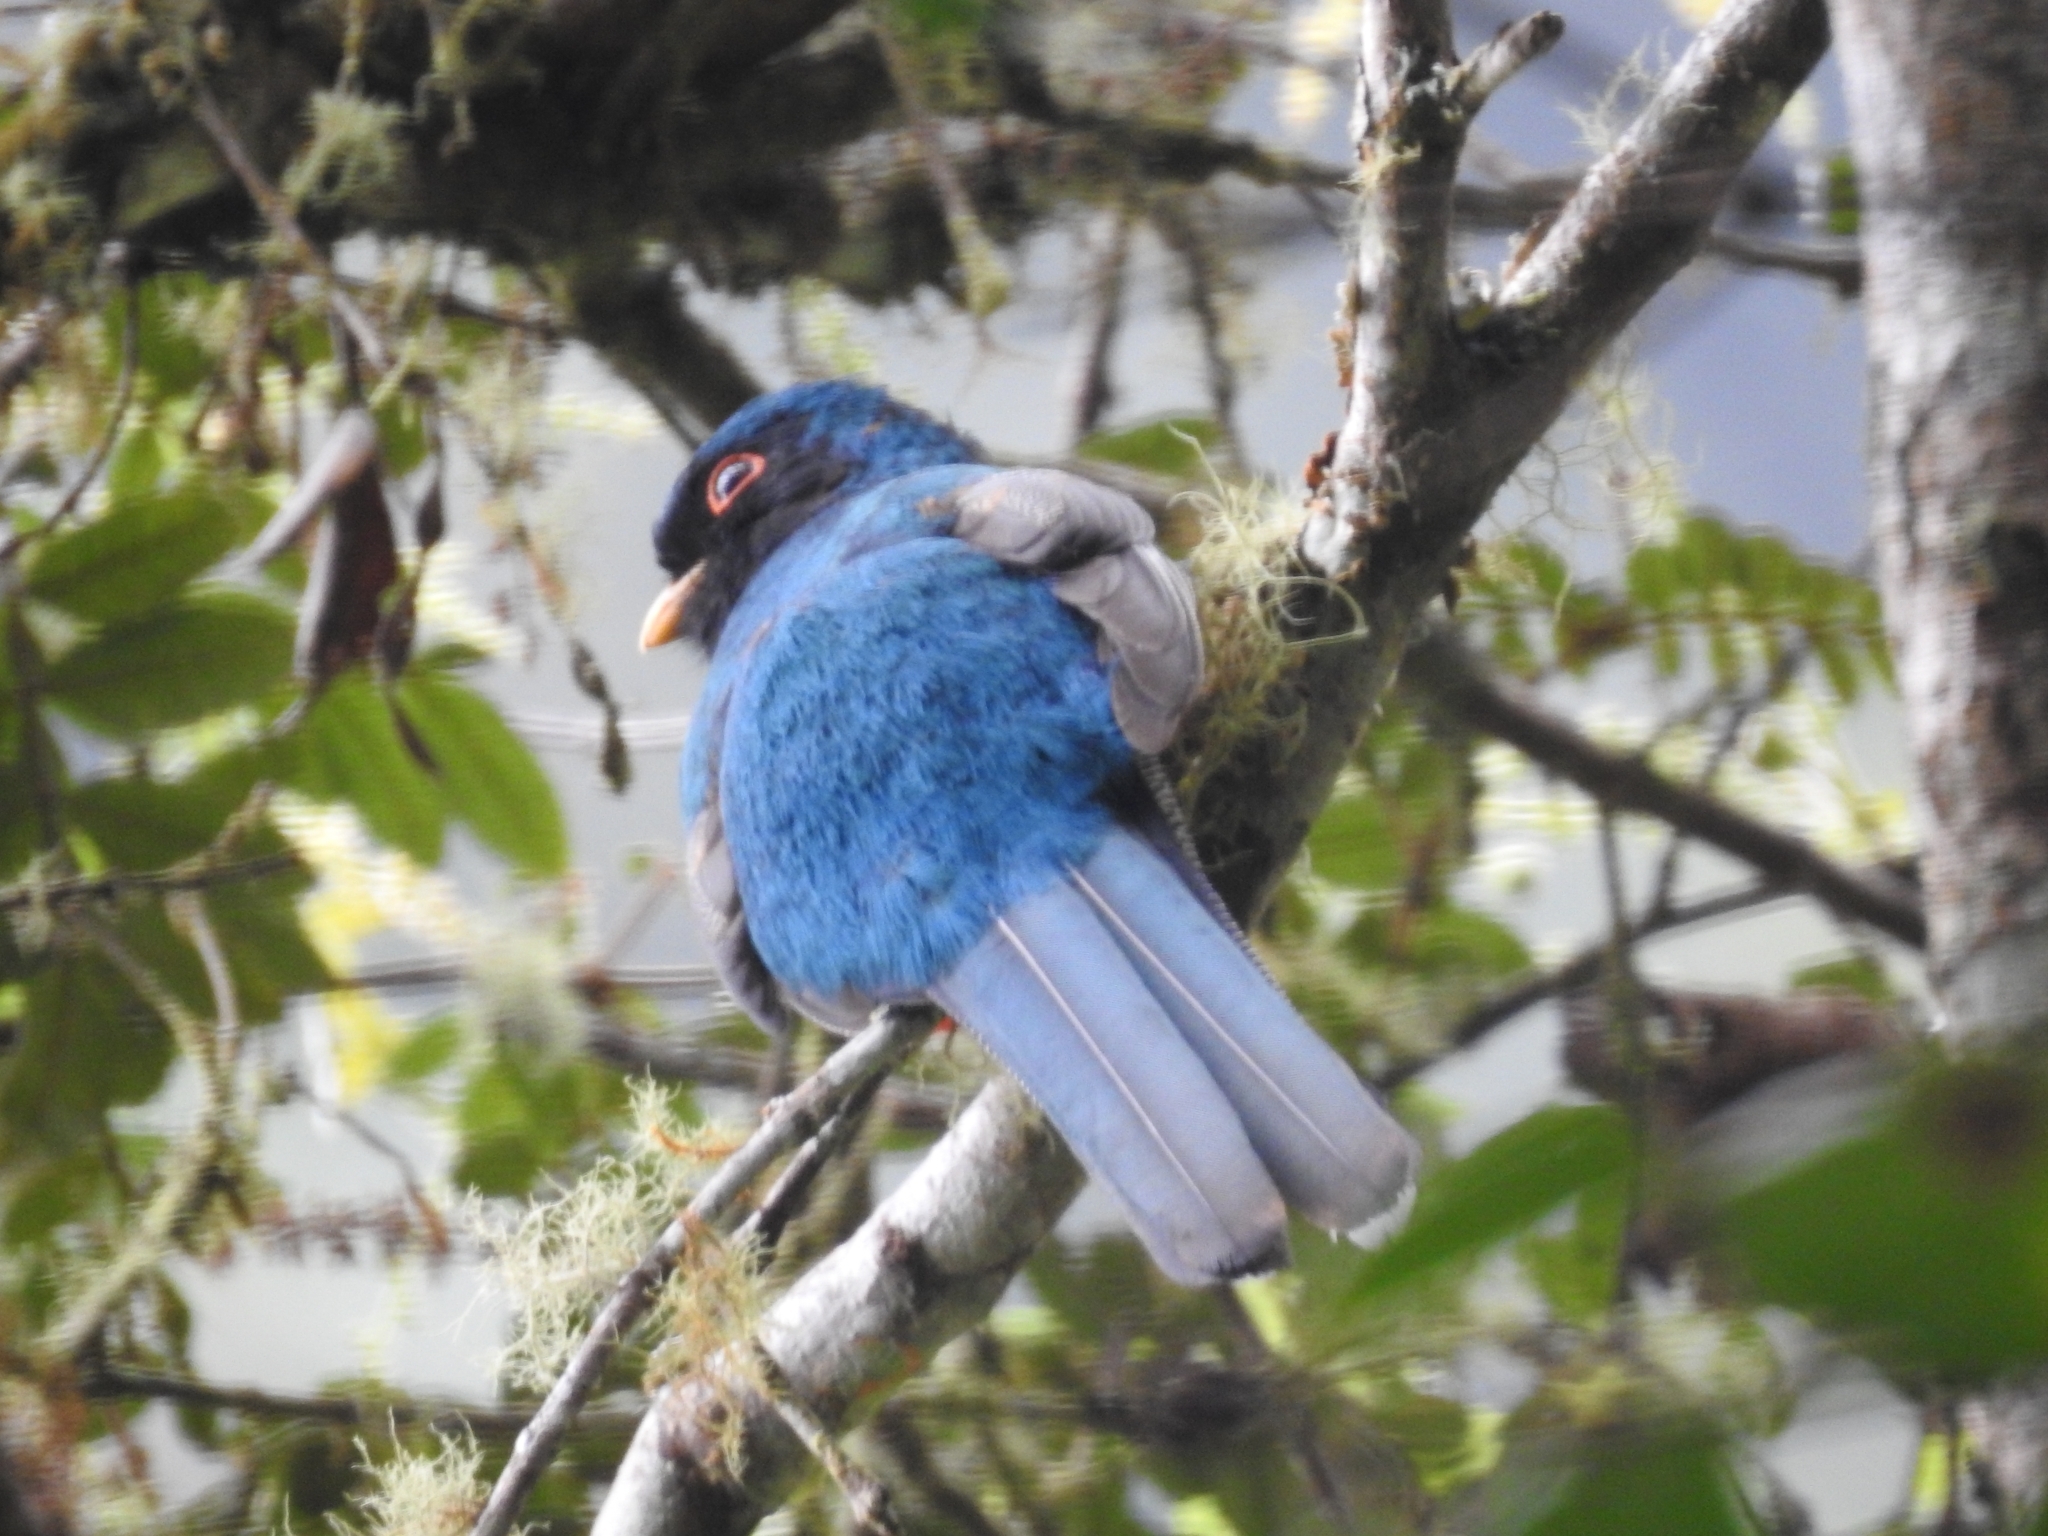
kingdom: Animalia
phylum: Chordata
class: Aves
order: Trogoniformes
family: Trogonidae
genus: Trogon
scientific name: Trogon personatus
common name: Masked trogon
